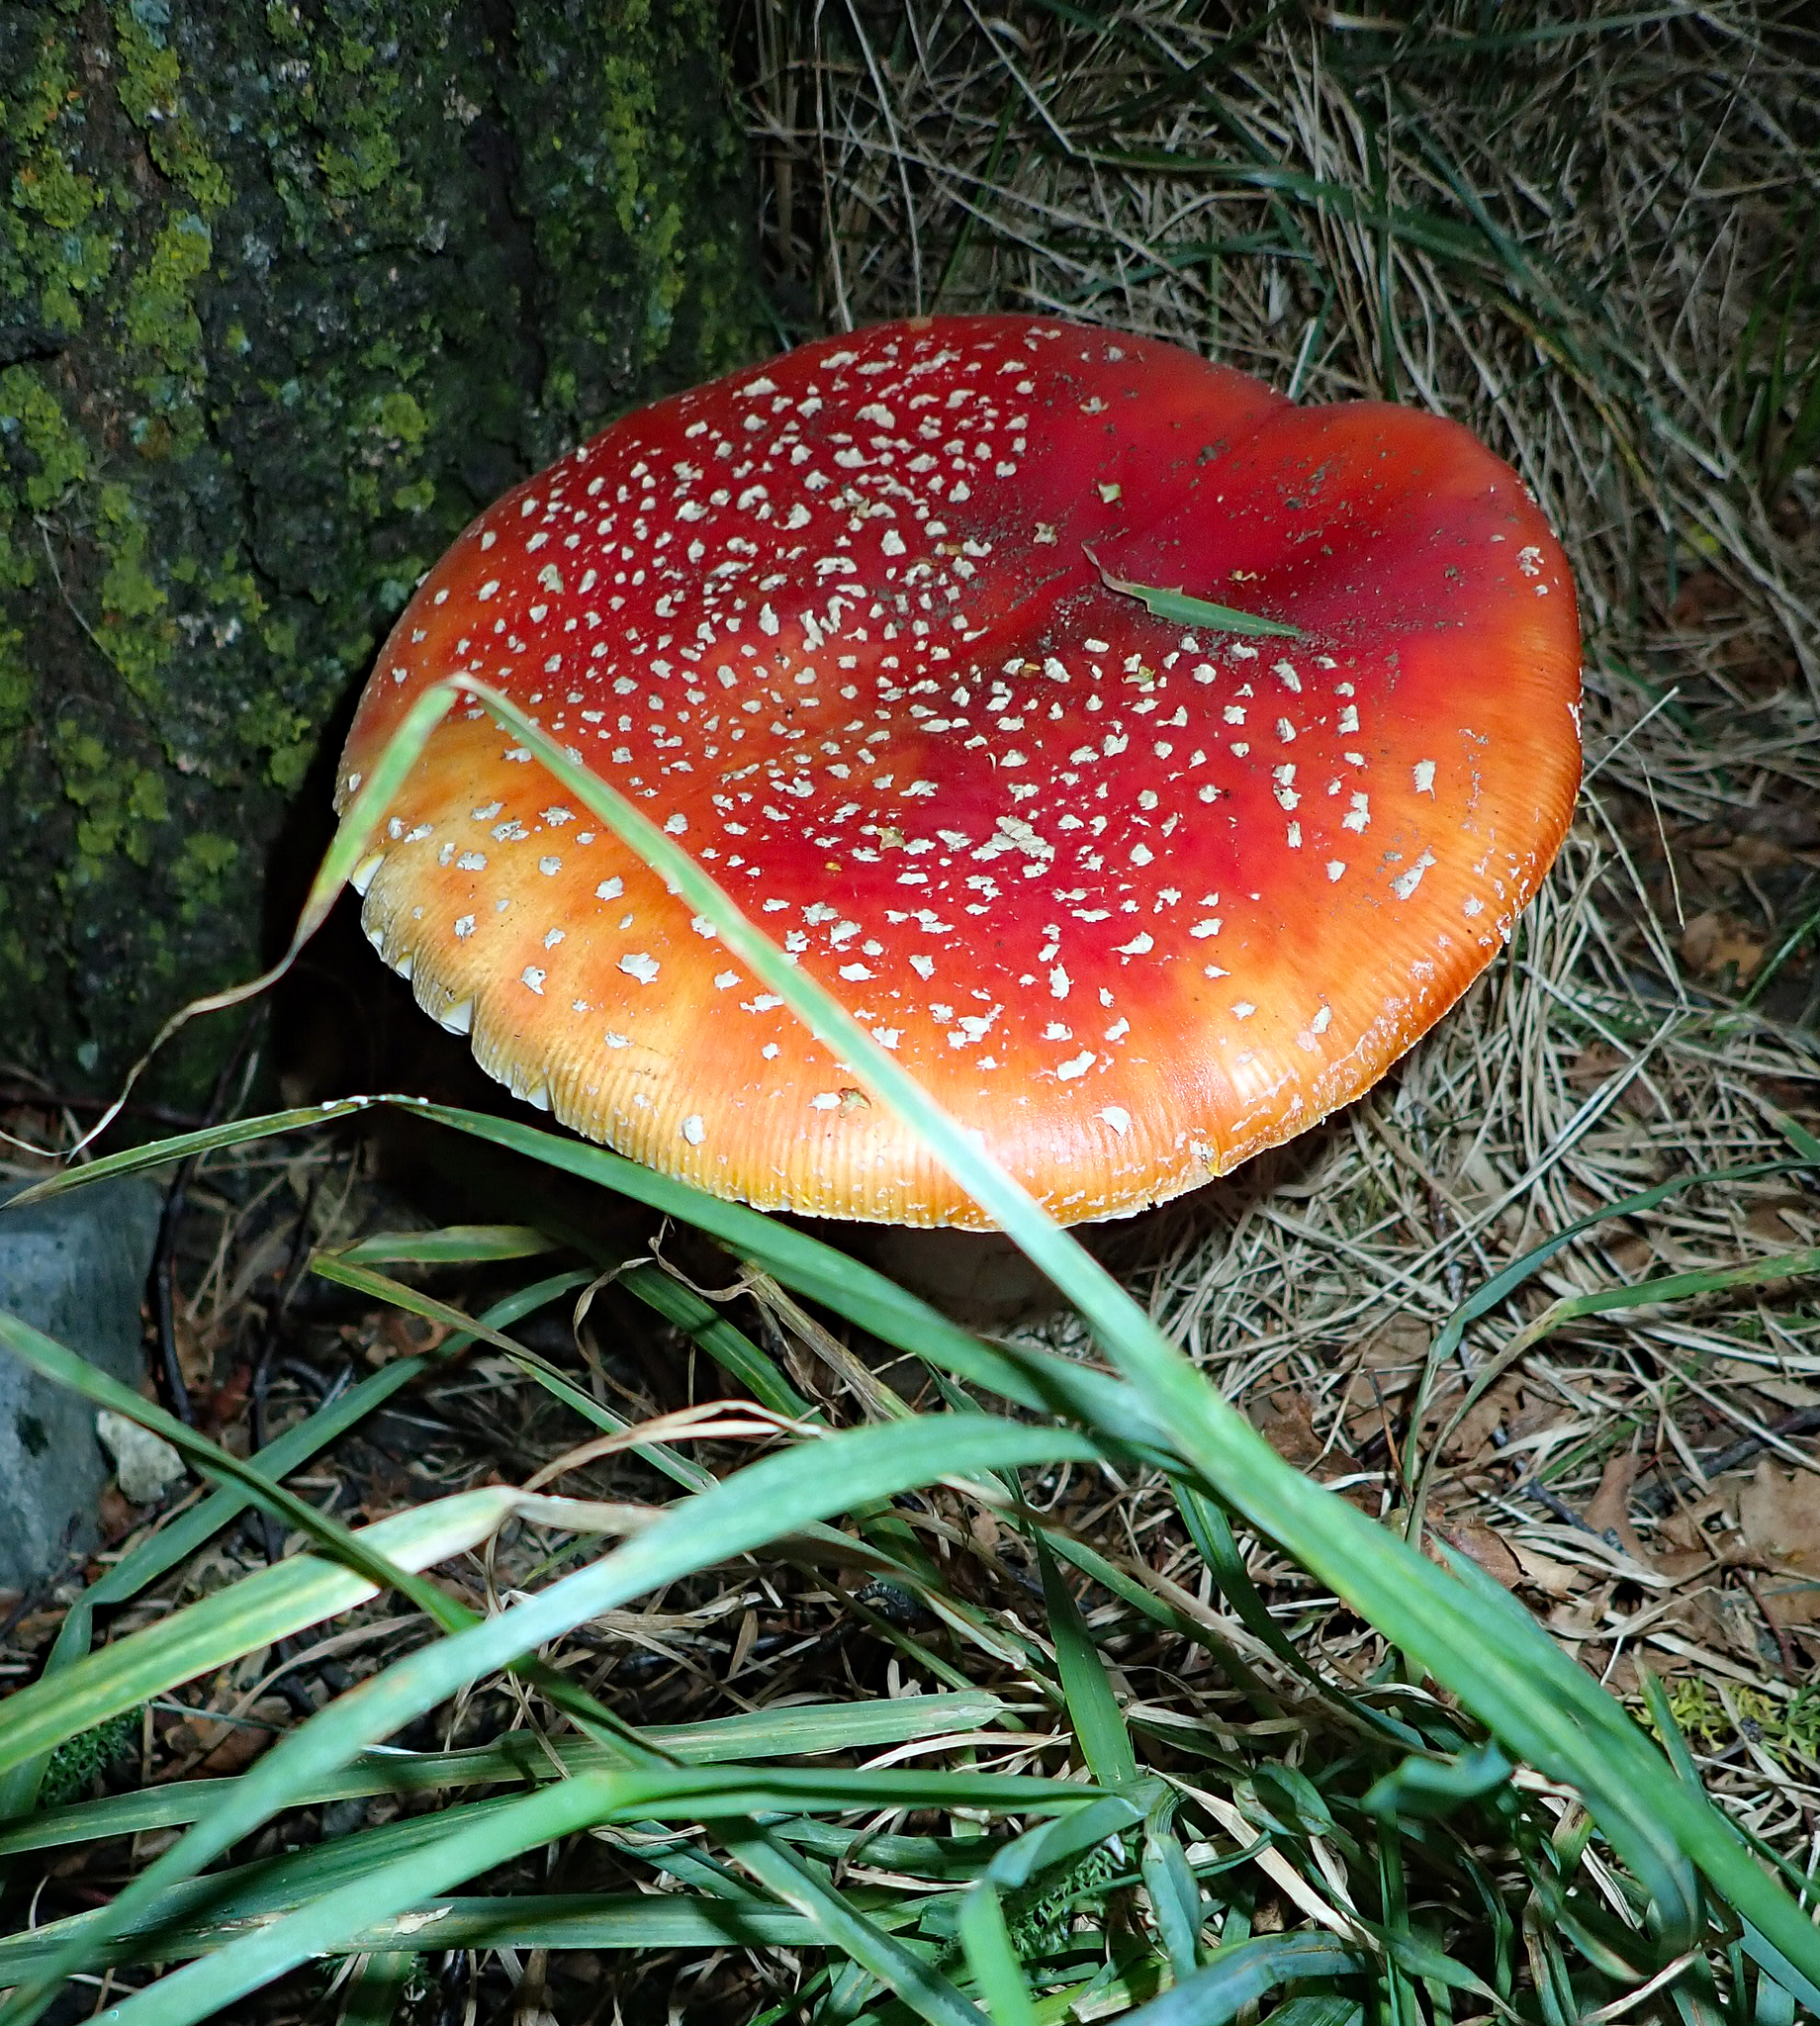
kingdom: Fungi
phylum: Basidiomycota
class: Agaricomycetes
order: Agaricales
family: Amanitaceae
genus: Amanita
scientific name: Amanita muscaria
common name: Fly agaric
